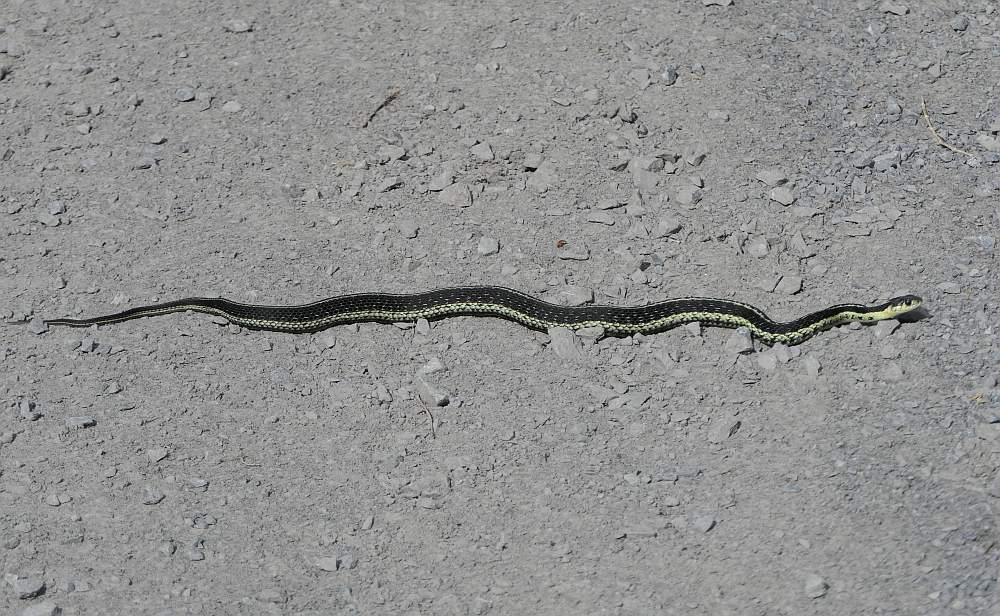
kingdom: Animalia
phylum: Chordata
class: Squamata
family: Colubridae
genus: Thamnophis
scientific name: Thamnophis sirtalis
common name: Common garter snake
